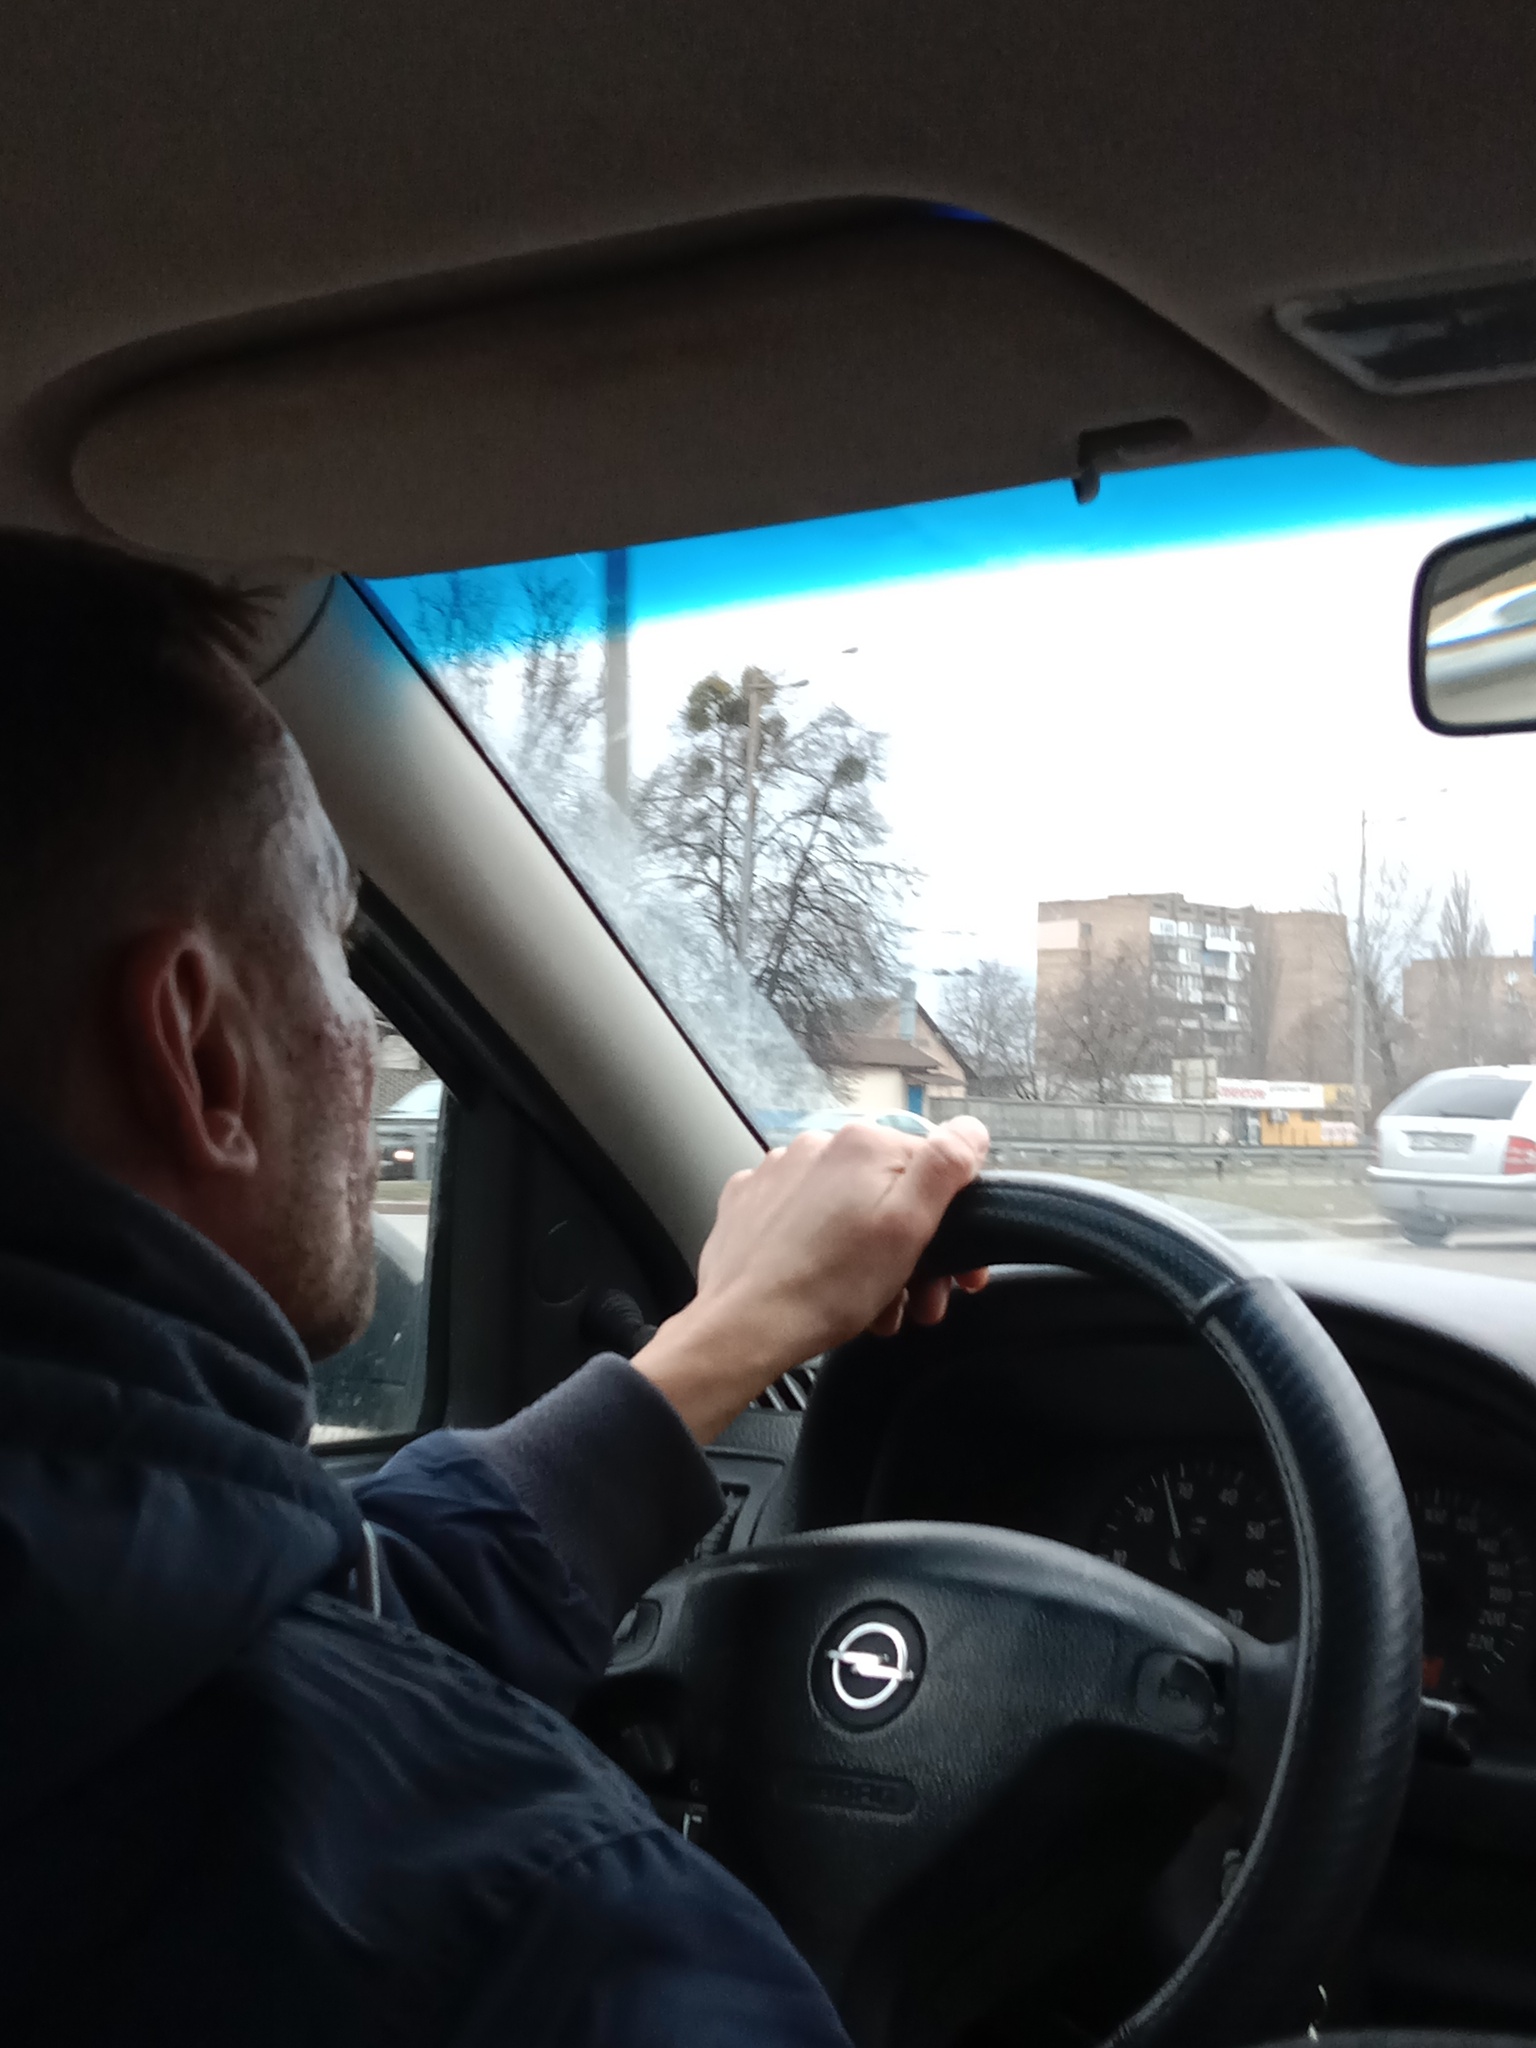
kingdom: Plantae
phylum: Tracheophyta
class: Magnoliopsida
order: Santalales
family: Viscaceae
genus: Viscum
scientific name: Viscum album
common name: Mistletoe
